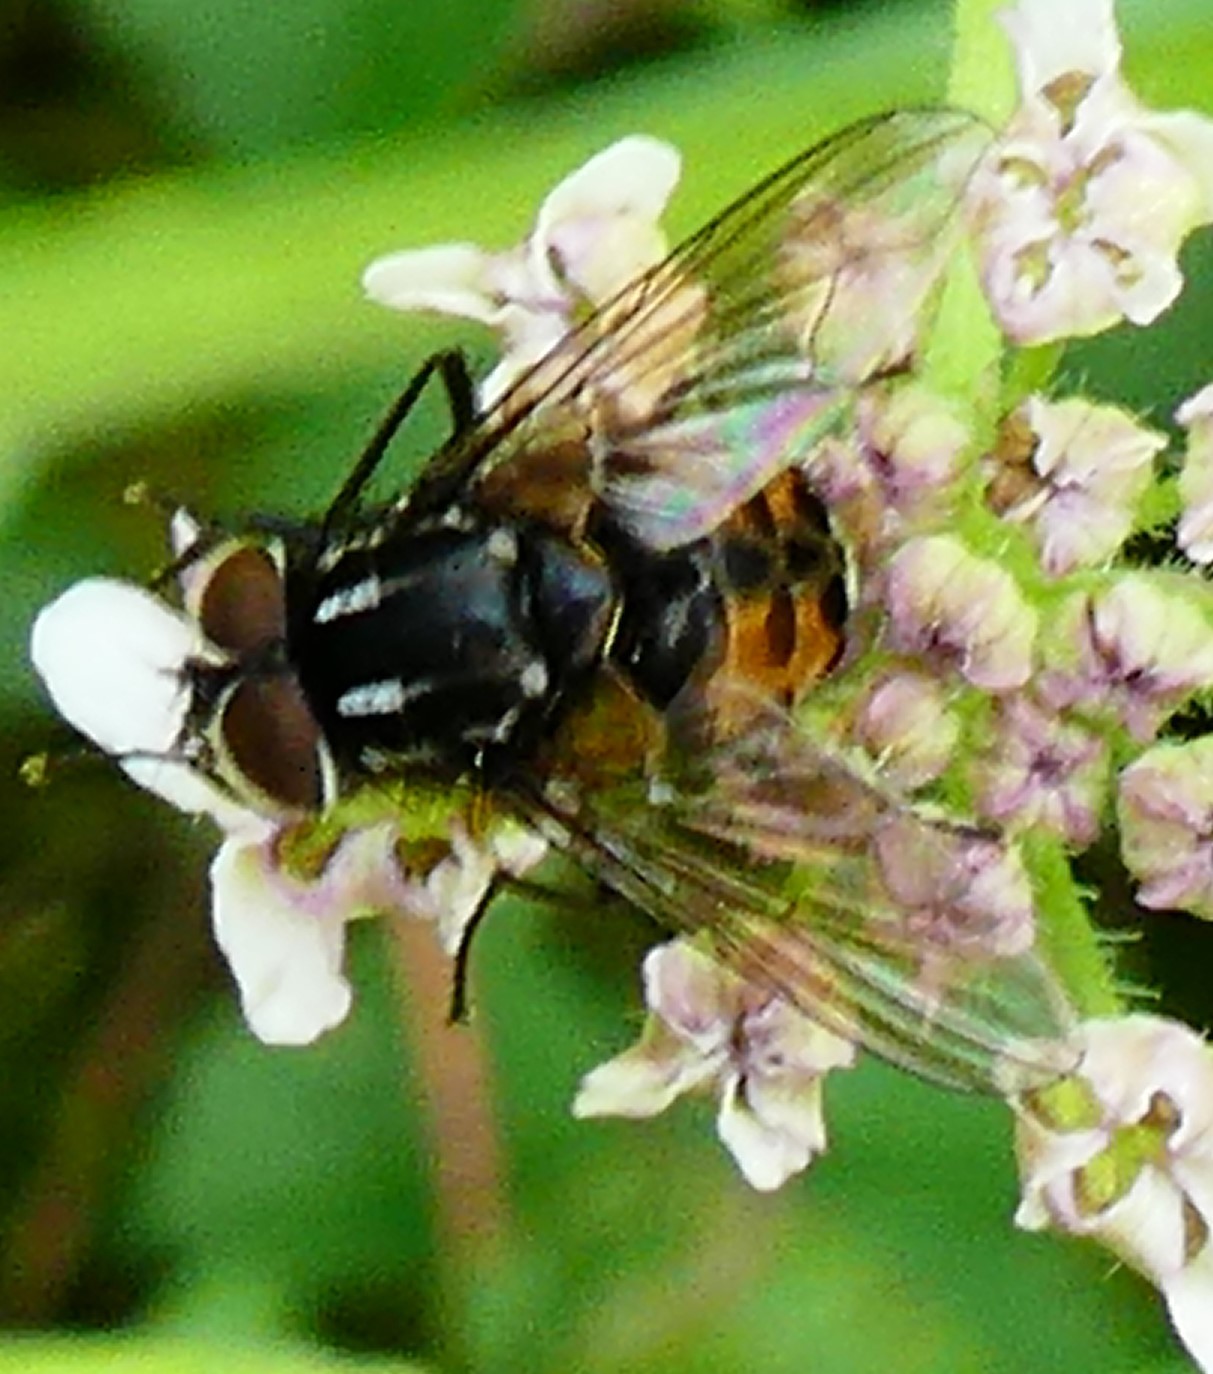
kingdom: Animalia
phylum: Arthropoda
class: Insecta
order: Diptera
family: Muscidae
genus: Graphomya
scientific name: Graphomya maculata
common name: Muscid fly
